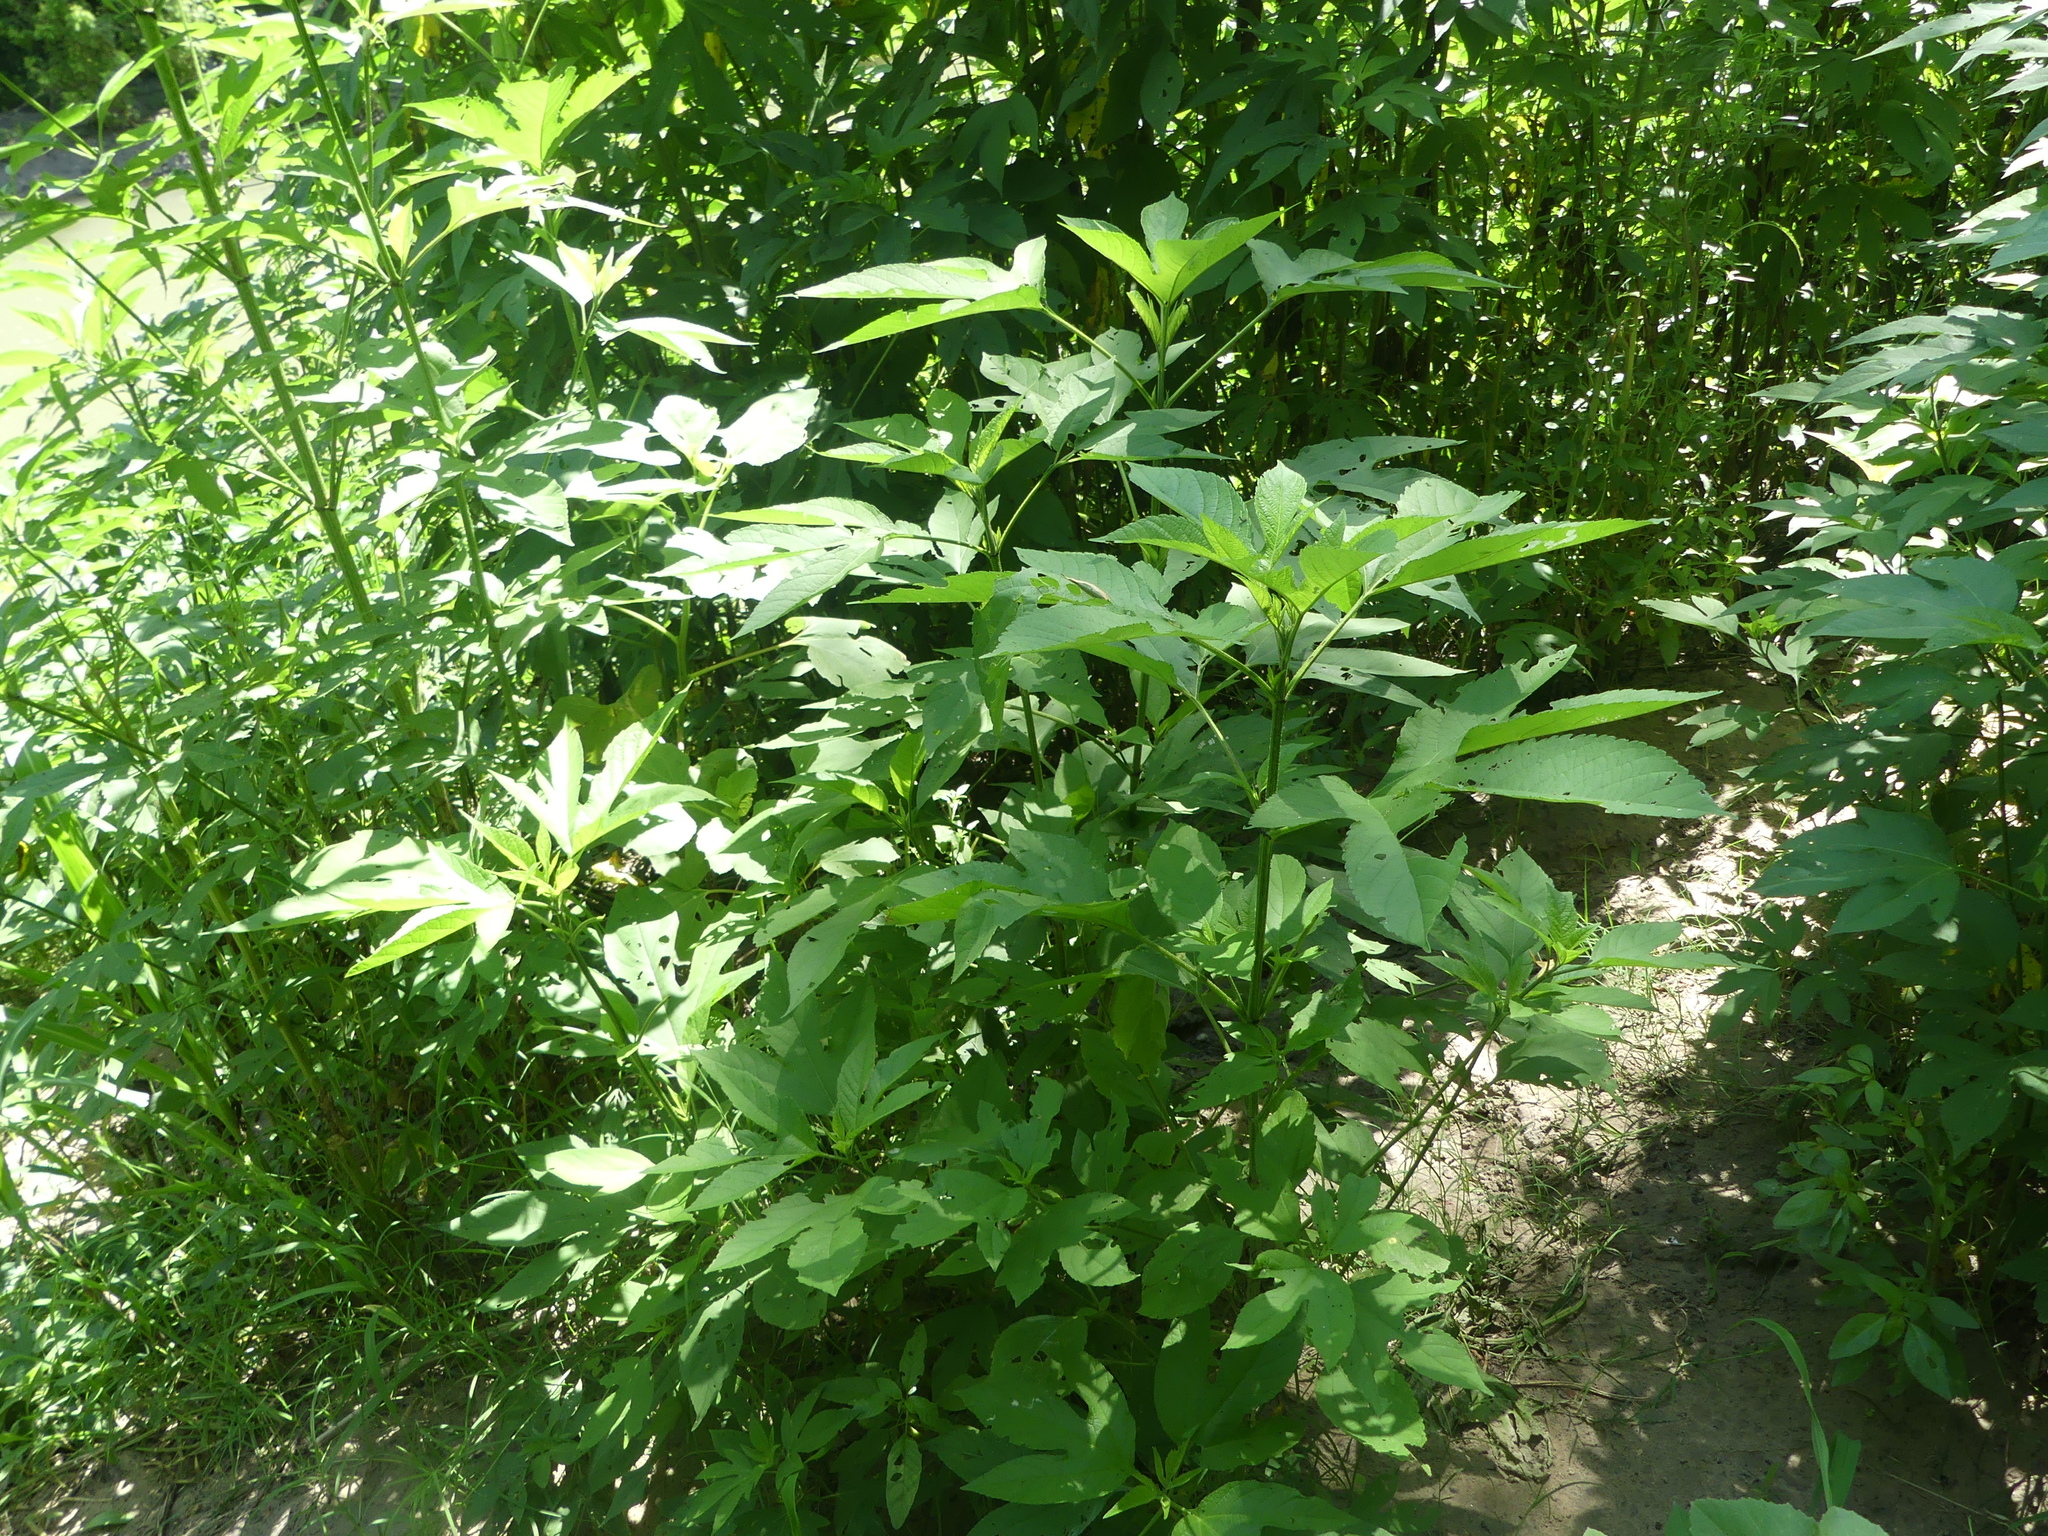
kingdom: Plantae
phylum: Tracheophyta
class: Magnoliopsida
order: Asterales
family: Asteraceae
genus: Ambrosia
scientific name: Ambrosia trifida
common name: Giant ragweed
